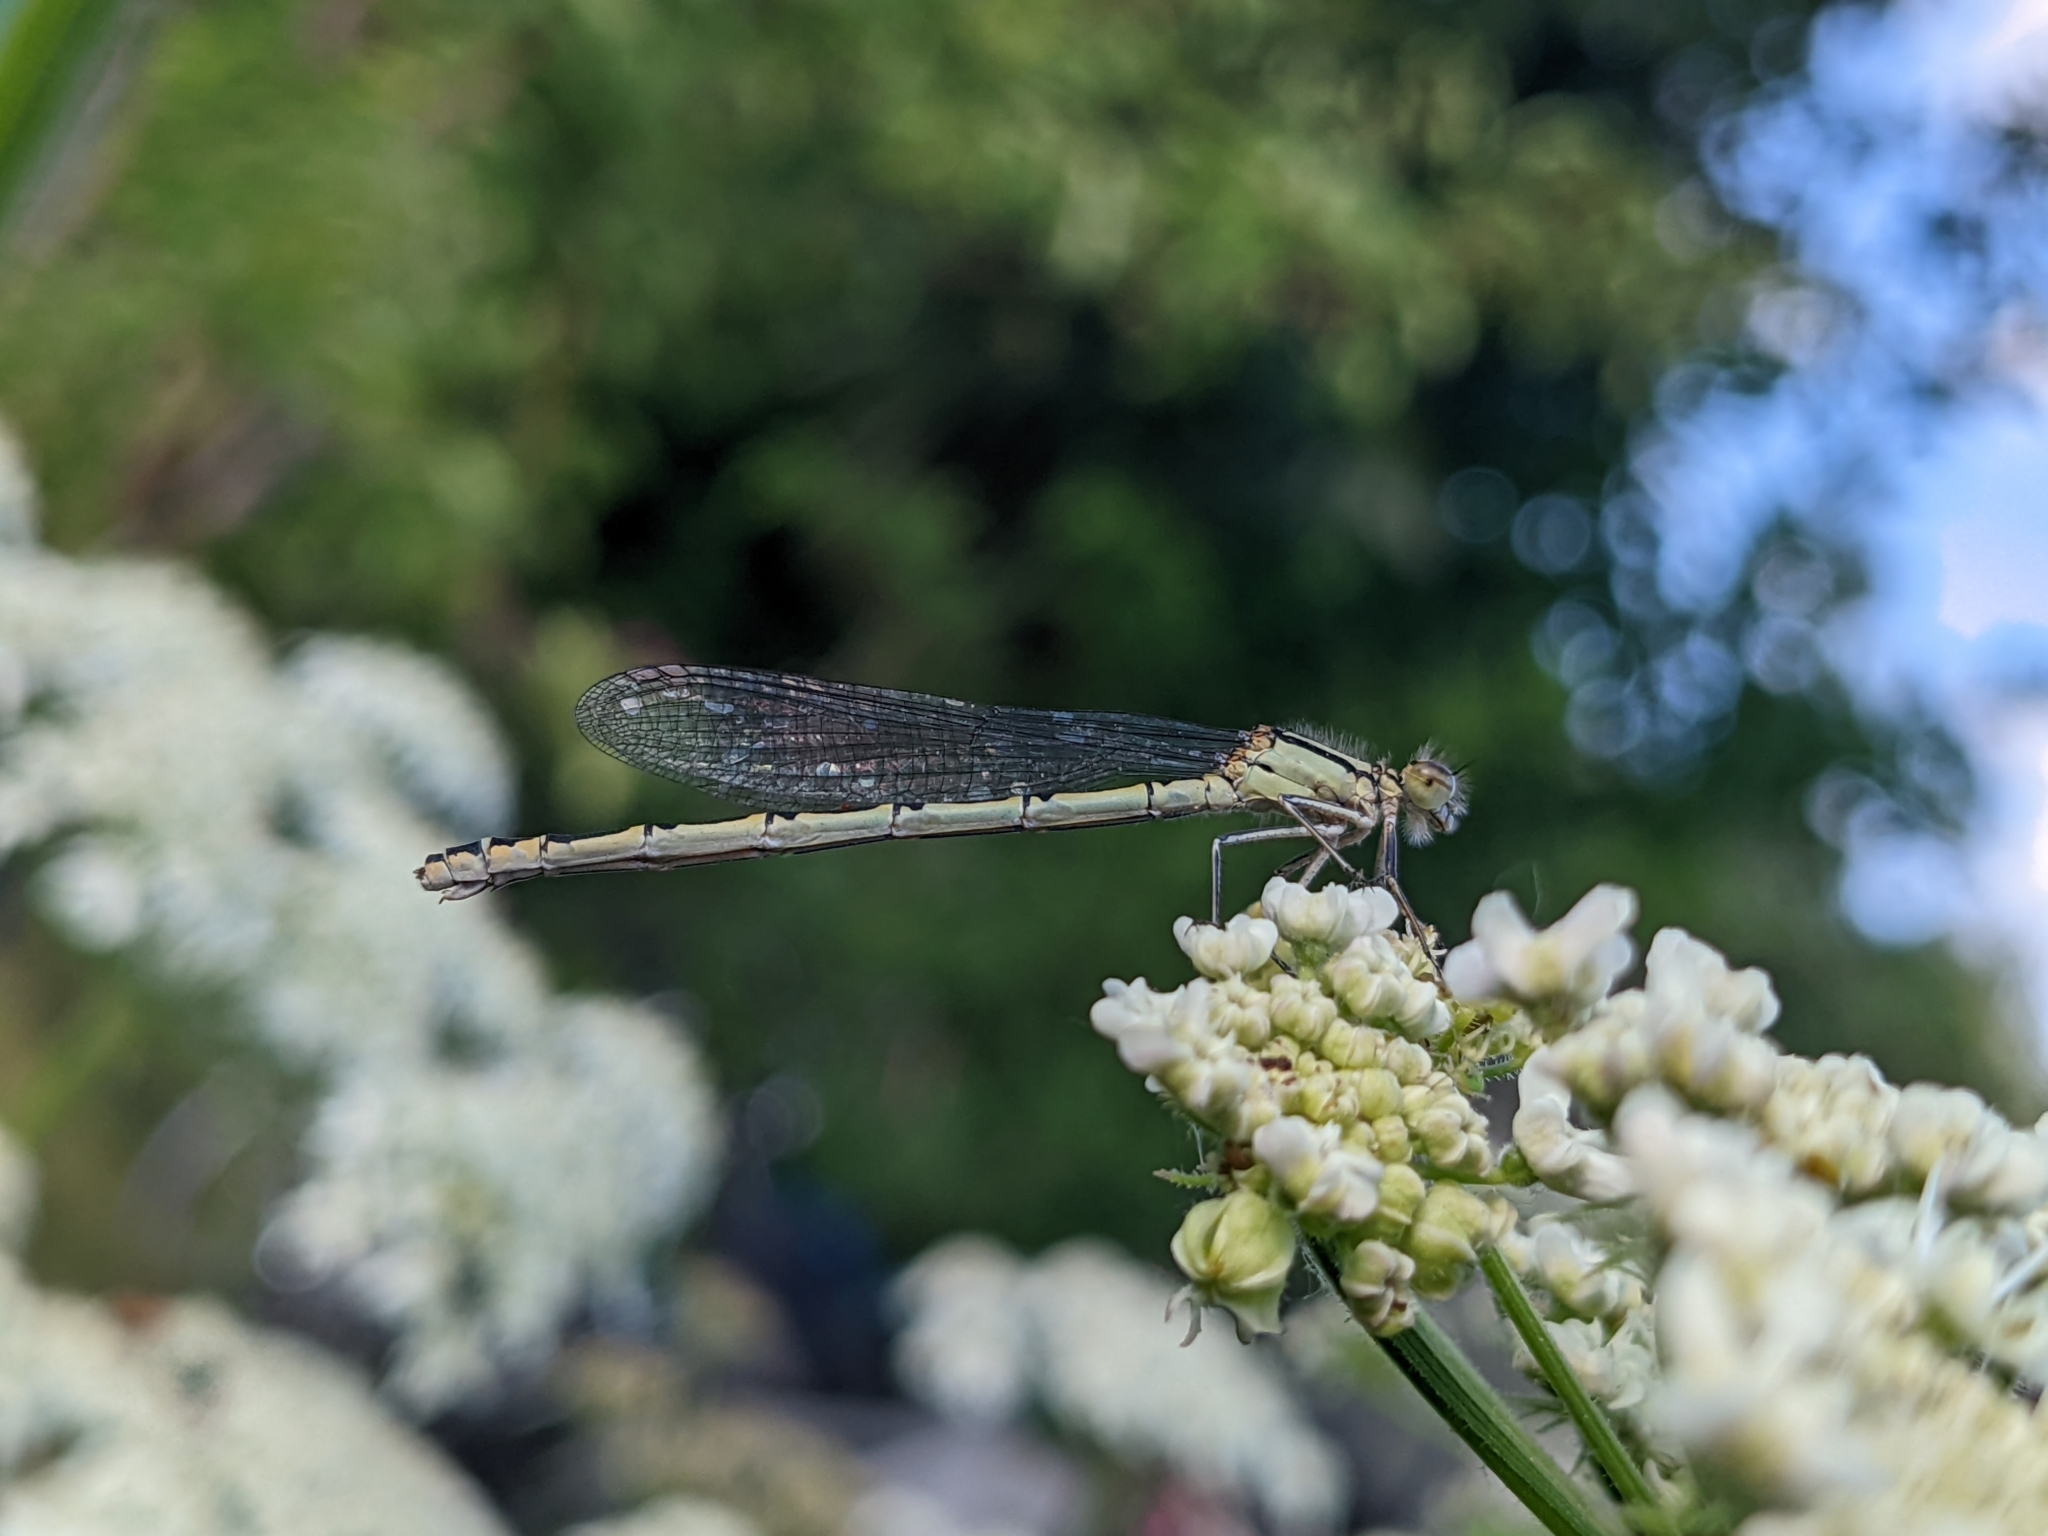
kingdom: Animalia
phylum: Arthropoda
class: Insecta
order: Odonata
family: Coenagrionidae
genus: Enallagma
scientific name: Enallagma cyathigerum
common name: Common blue damselfly
